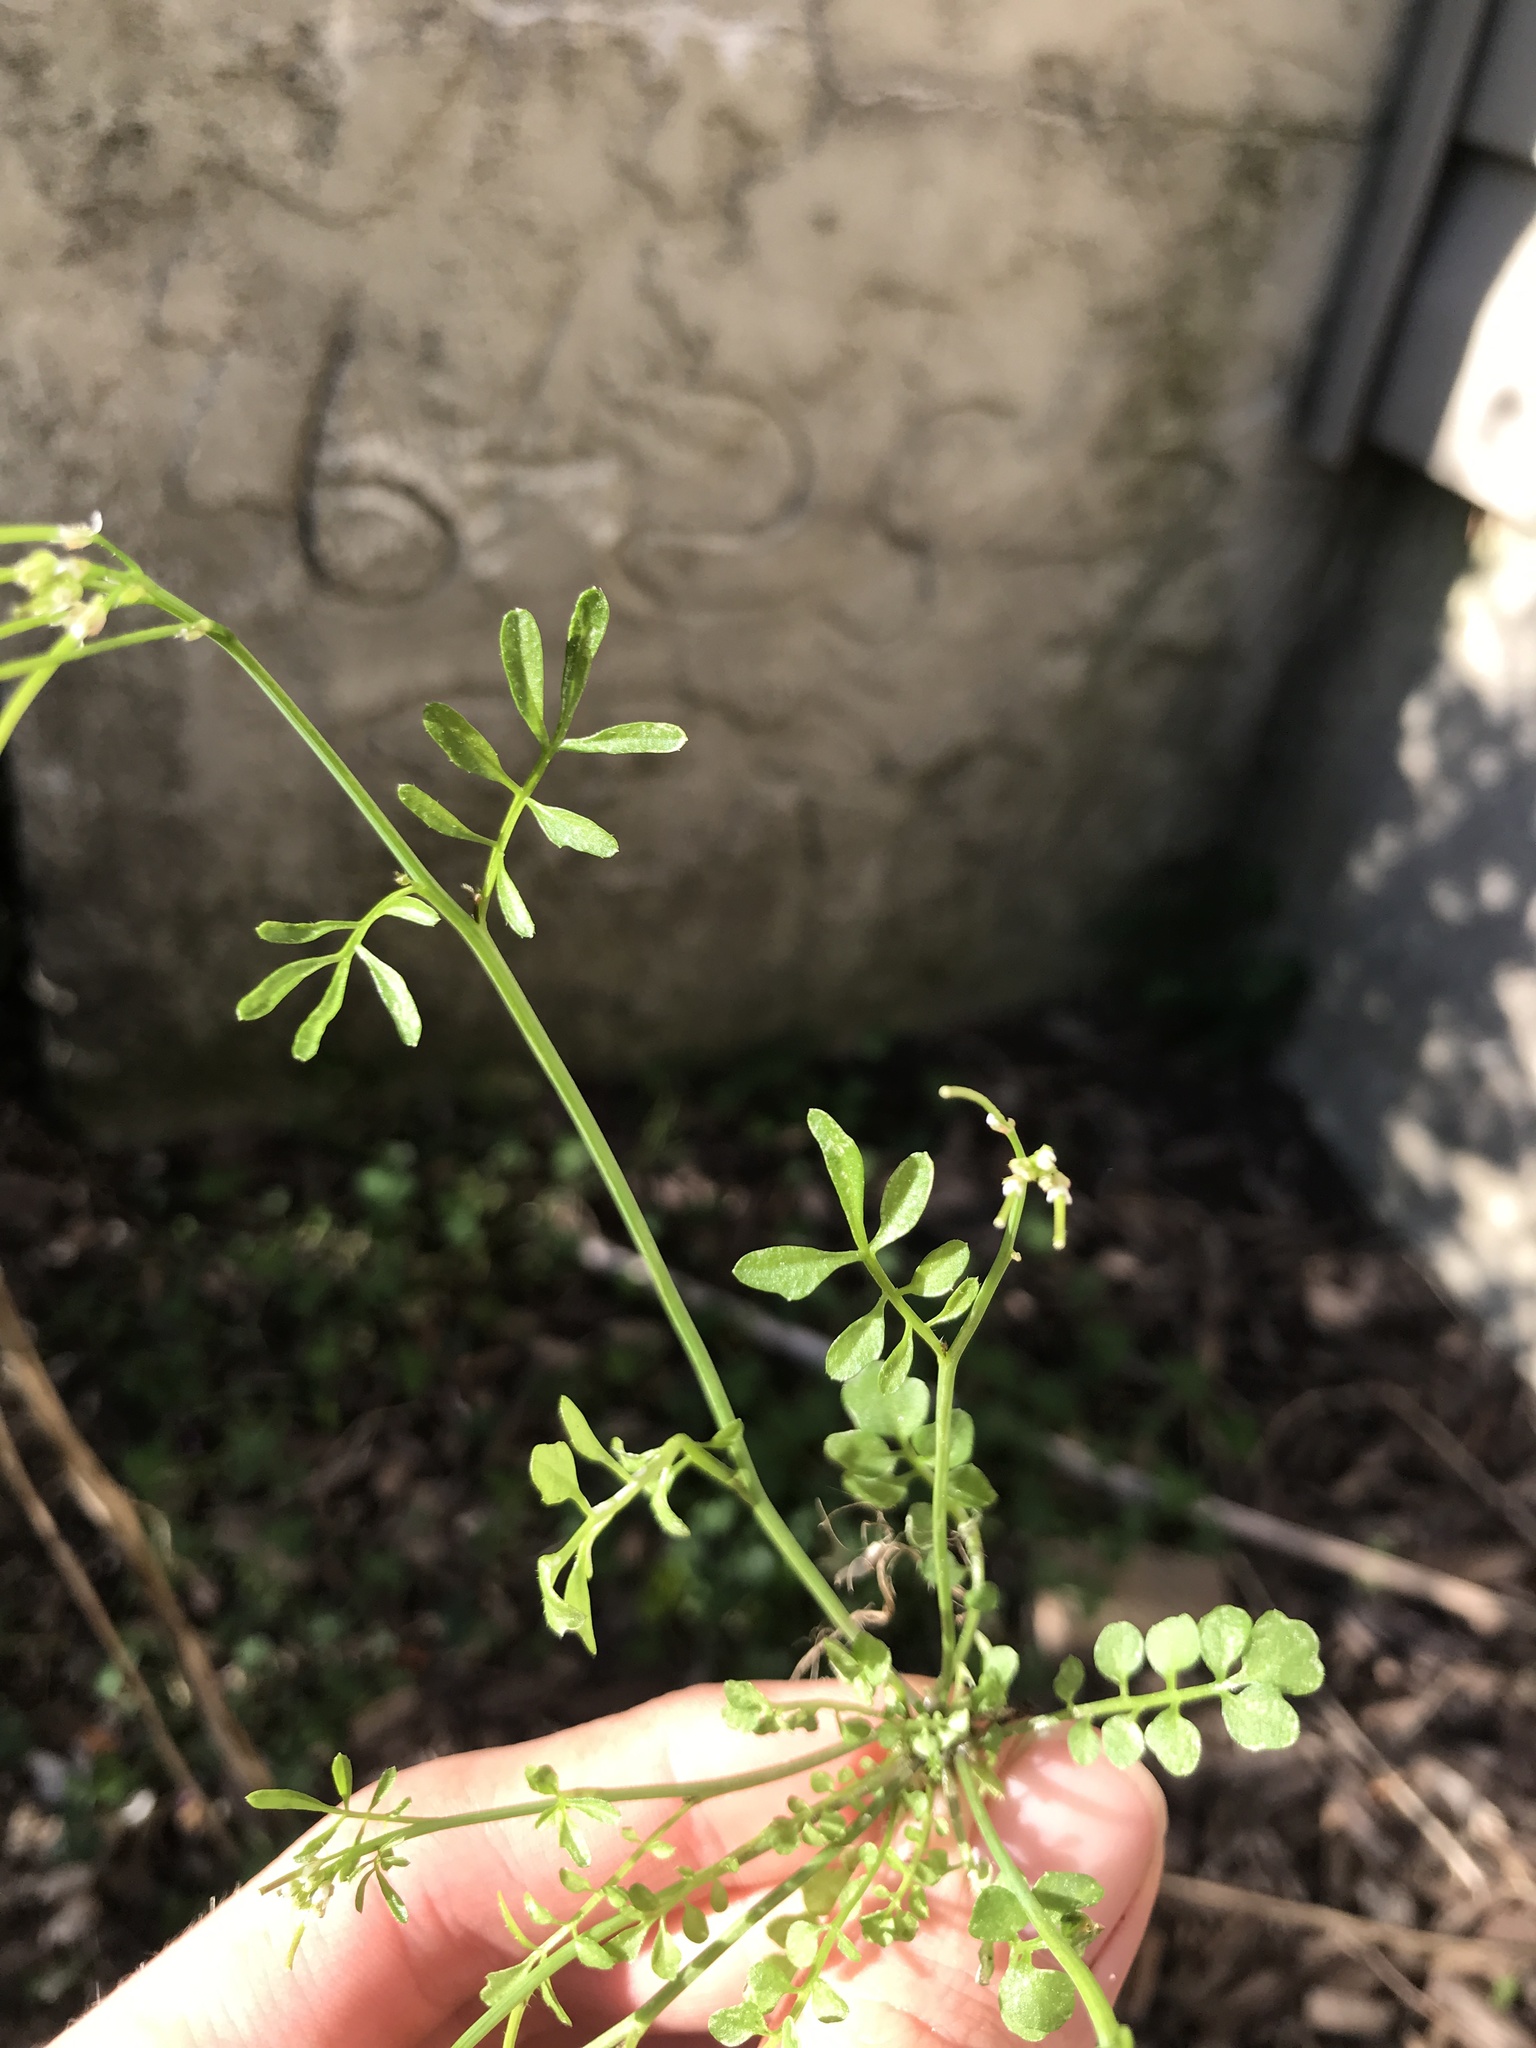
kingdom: Plantae
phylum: Tracheophyta
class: Magnoliopsida
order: Brassicales
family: Brassicaceae
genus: Cardamine
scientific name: Cardamine hirsuta
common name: Hairy bittercress
